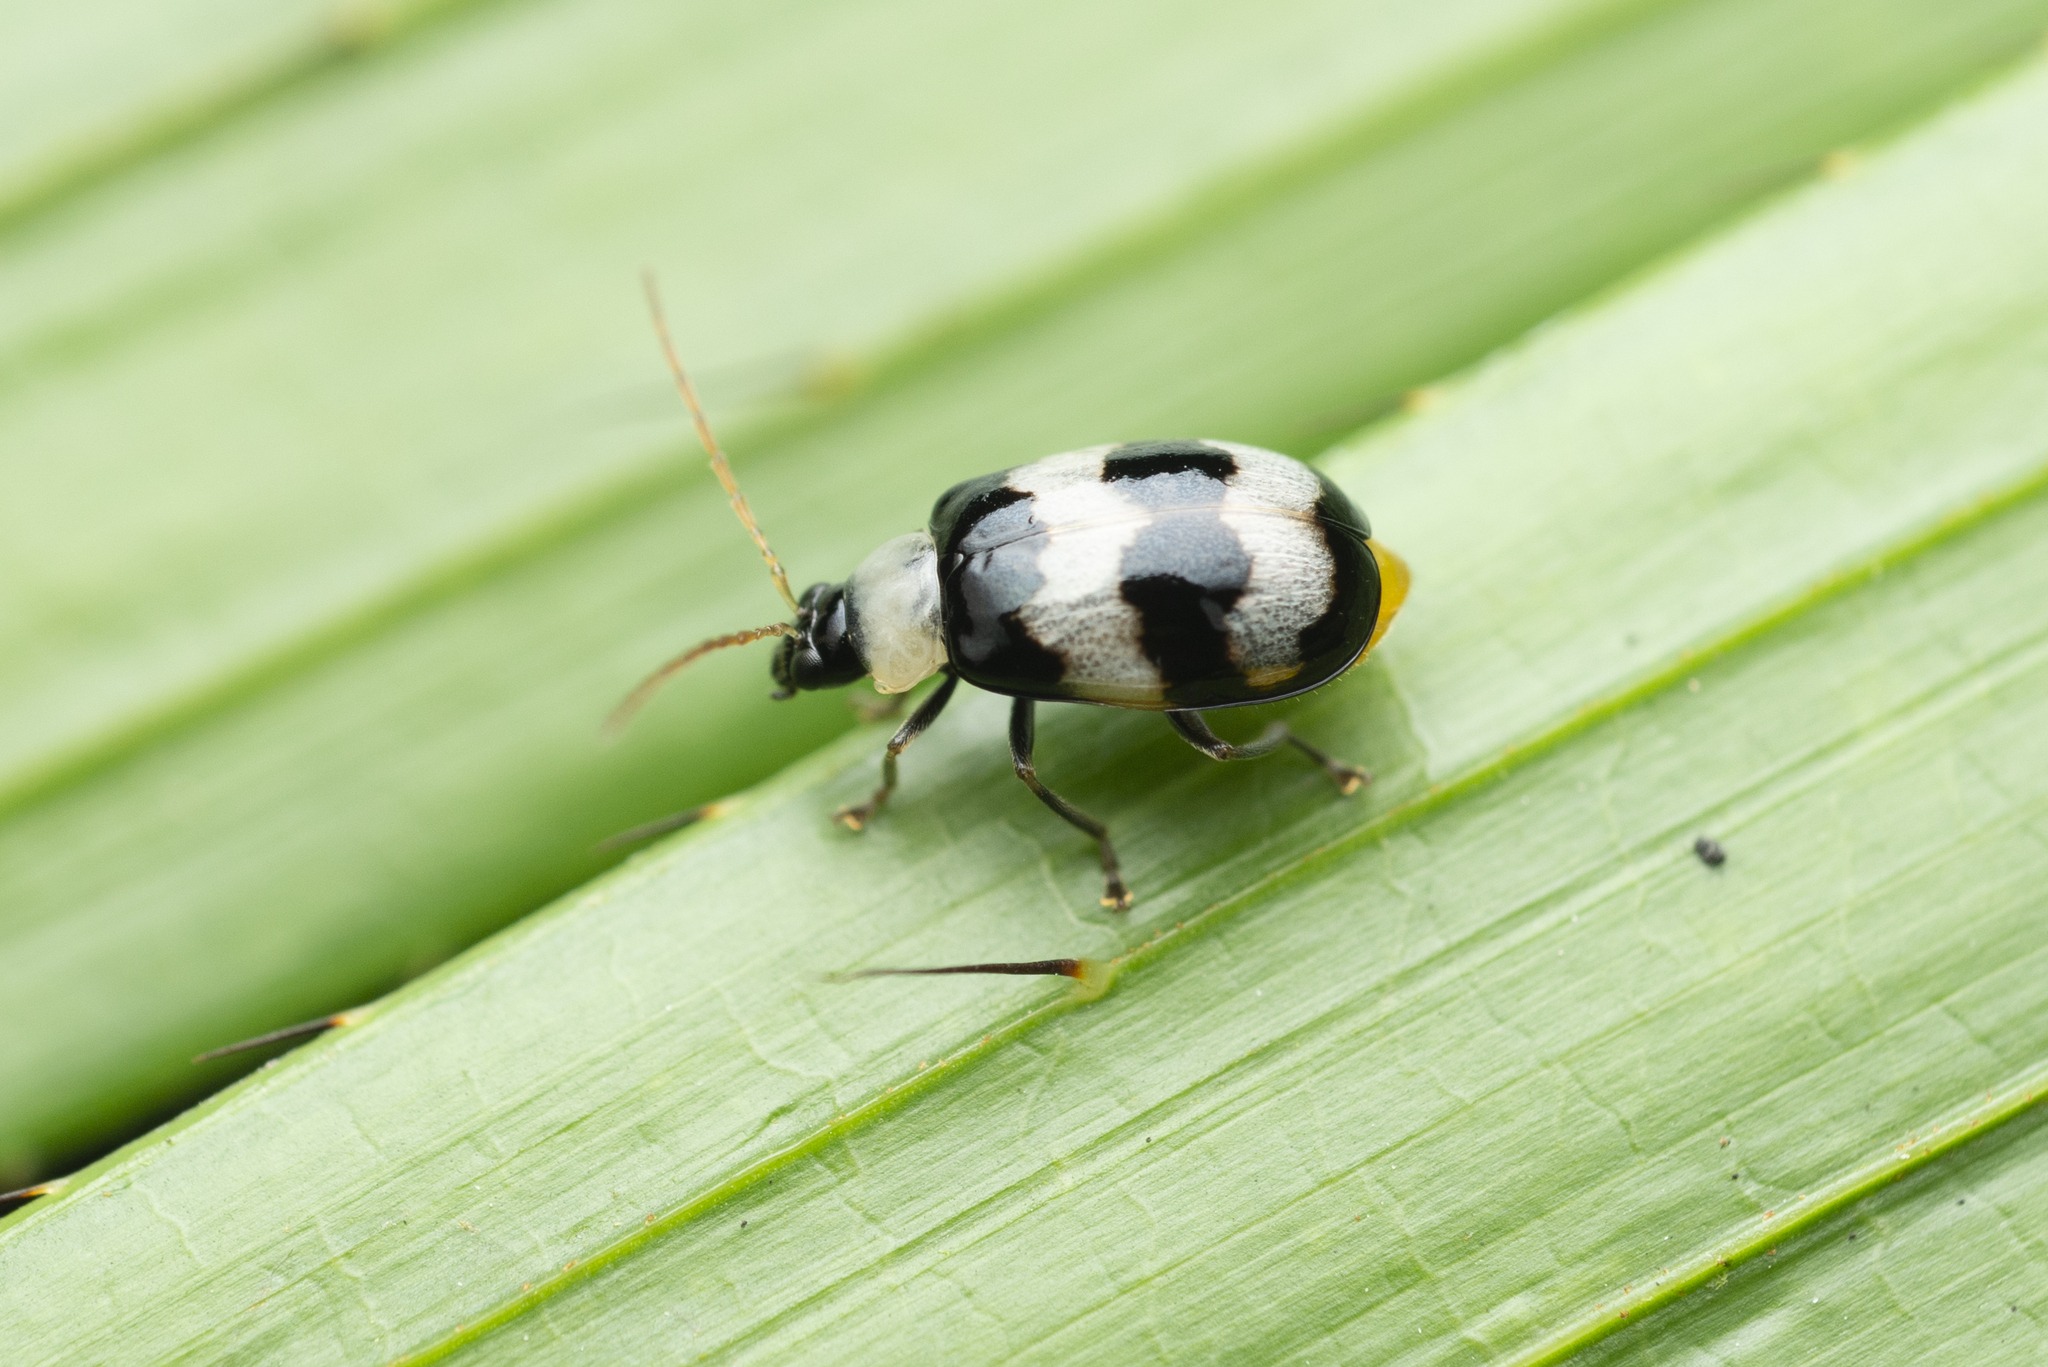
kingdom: Animalia
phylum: Arthropoda
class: Insecta
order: Coleoptera
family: Chrysomelidae
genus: Monolepta
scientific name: Monolepta
